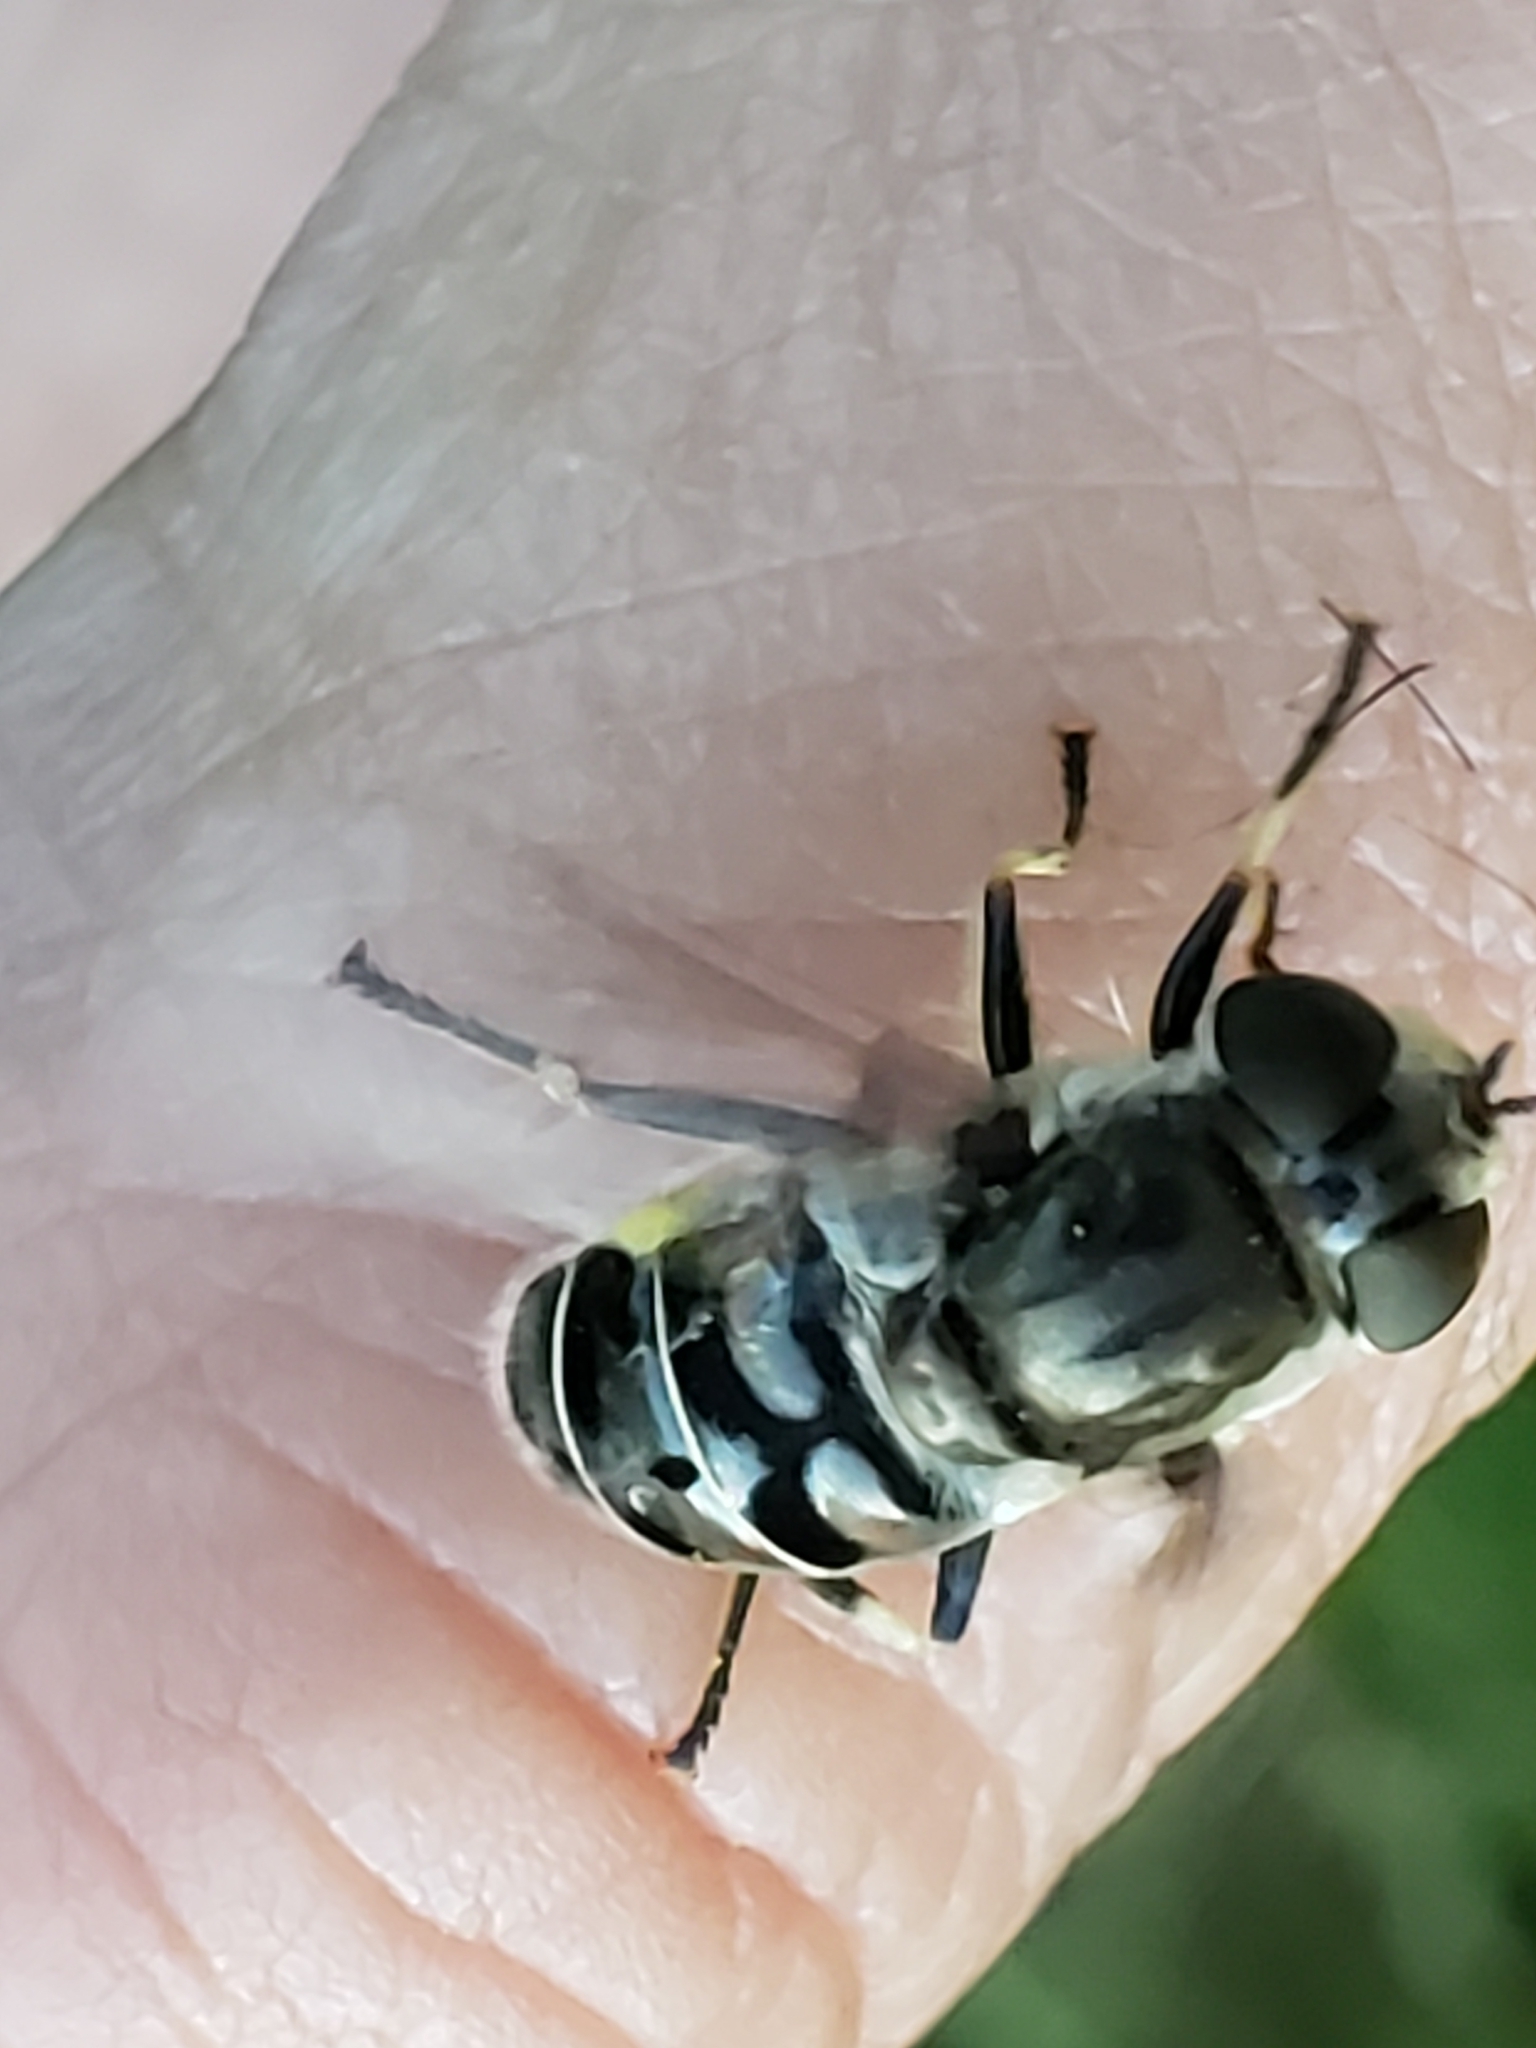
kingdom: Animalia
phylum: Arthropoda
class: Insecta
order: Diptera
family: Syrphidae
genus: Eristalis
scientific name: Eristalis dimidiata
